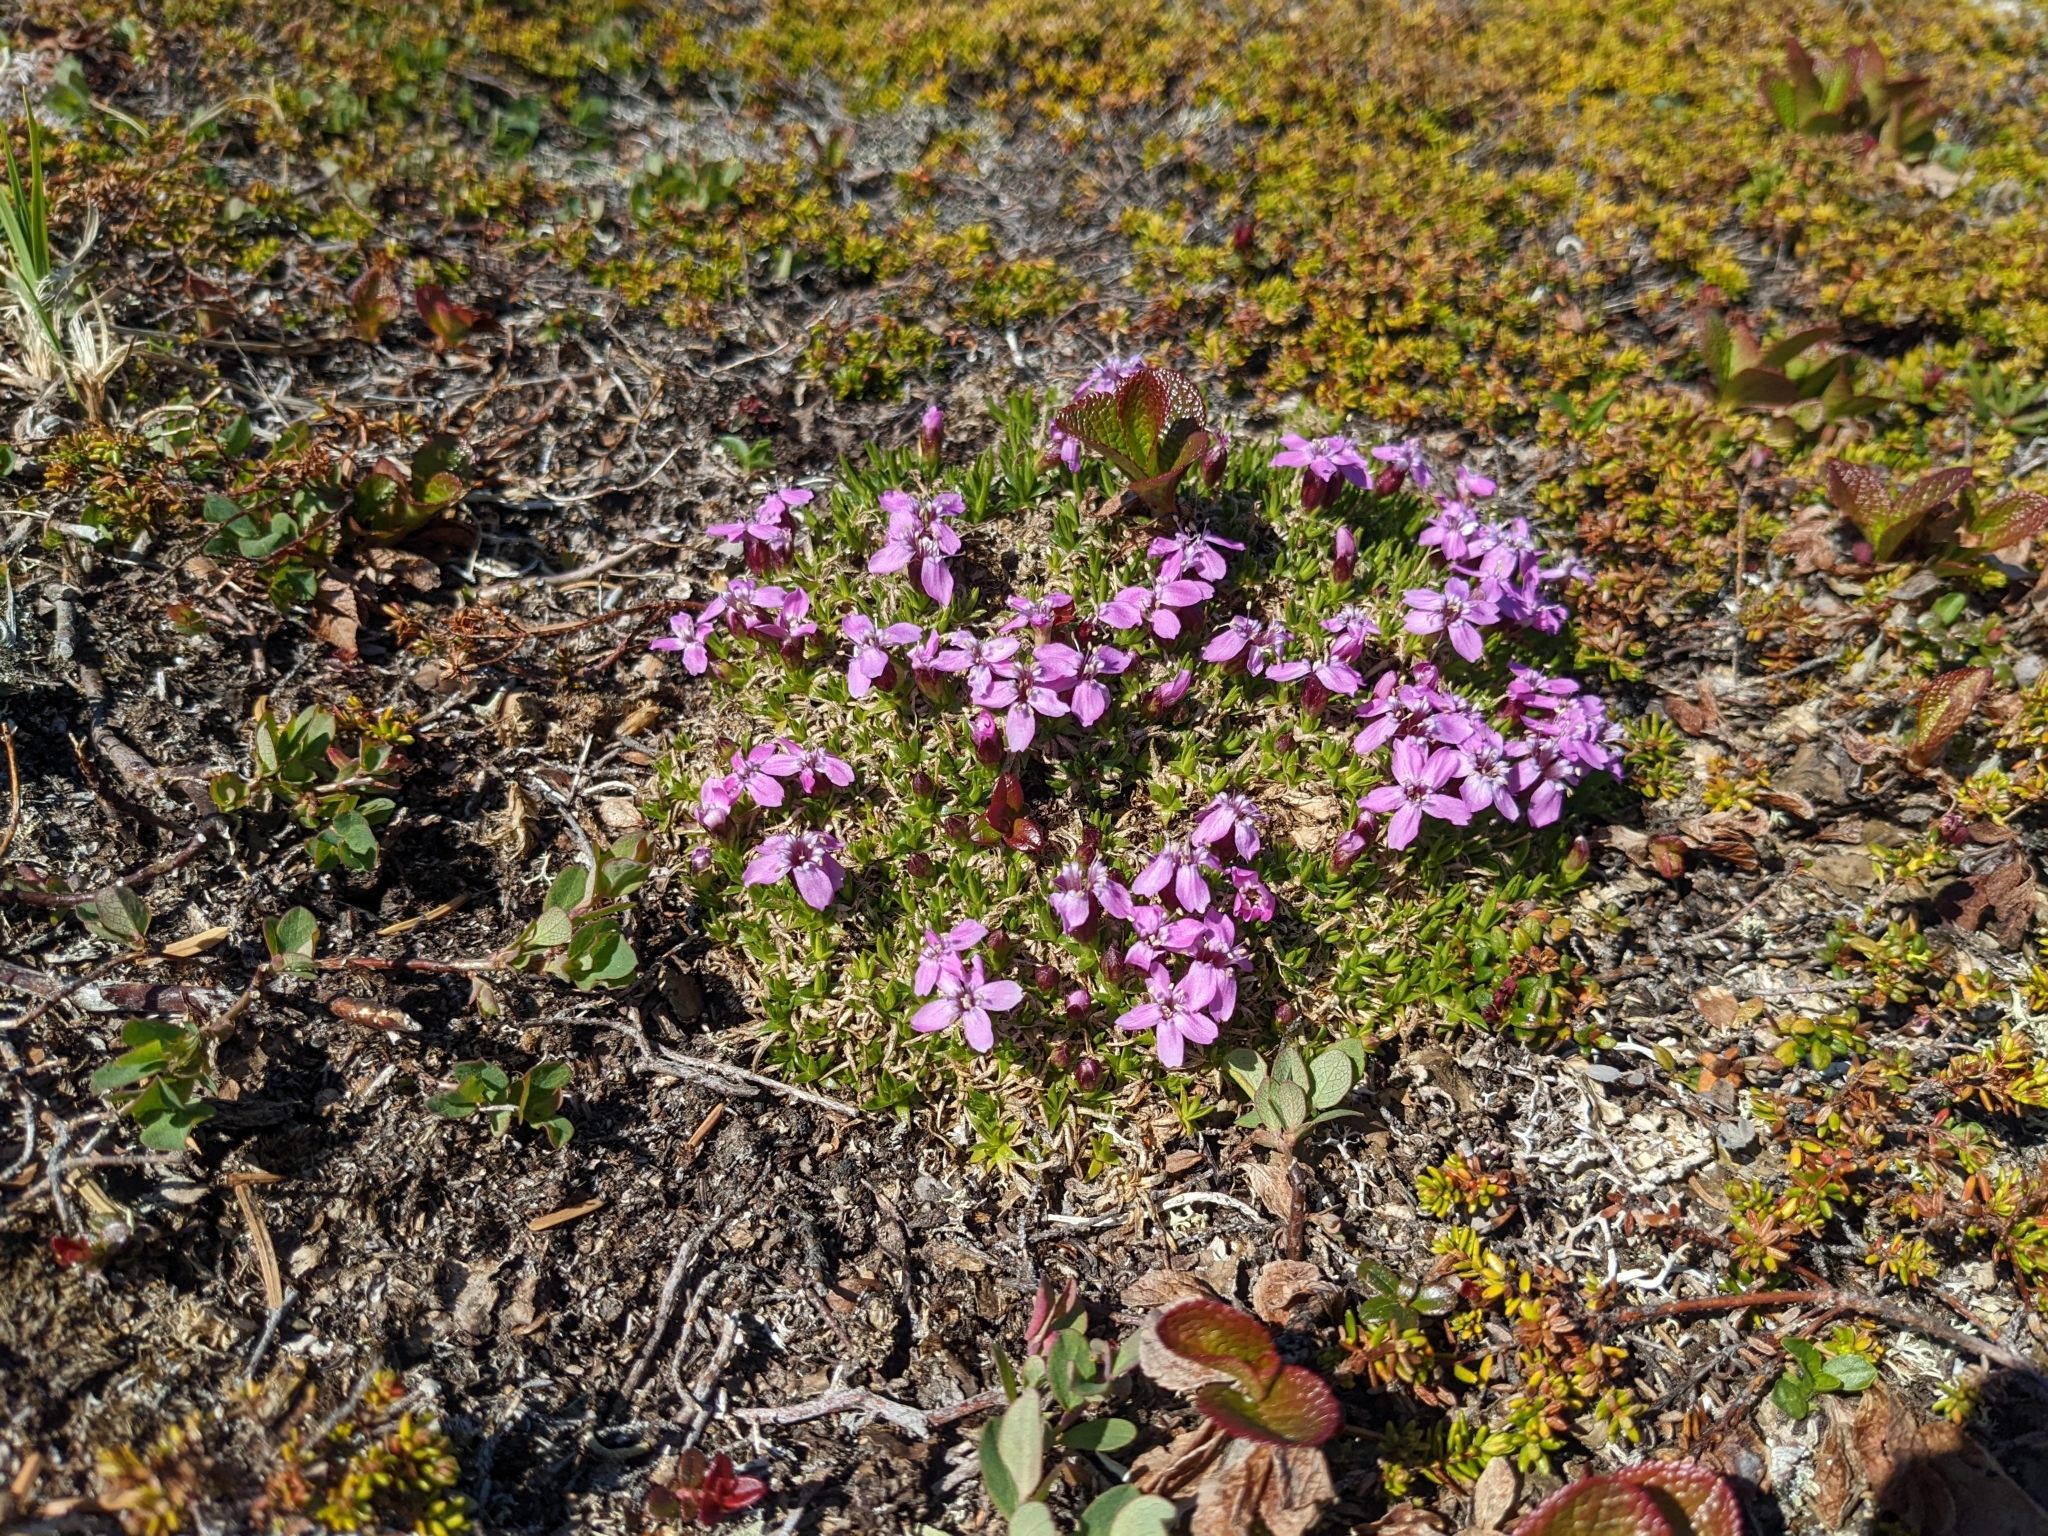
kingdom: Plantae
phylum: Tracheophyta
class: Magnoliopsida
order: Caryophyllales
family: Caryophyllaceae
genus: Silene
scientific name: Silene acaulis
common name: Moss campion
